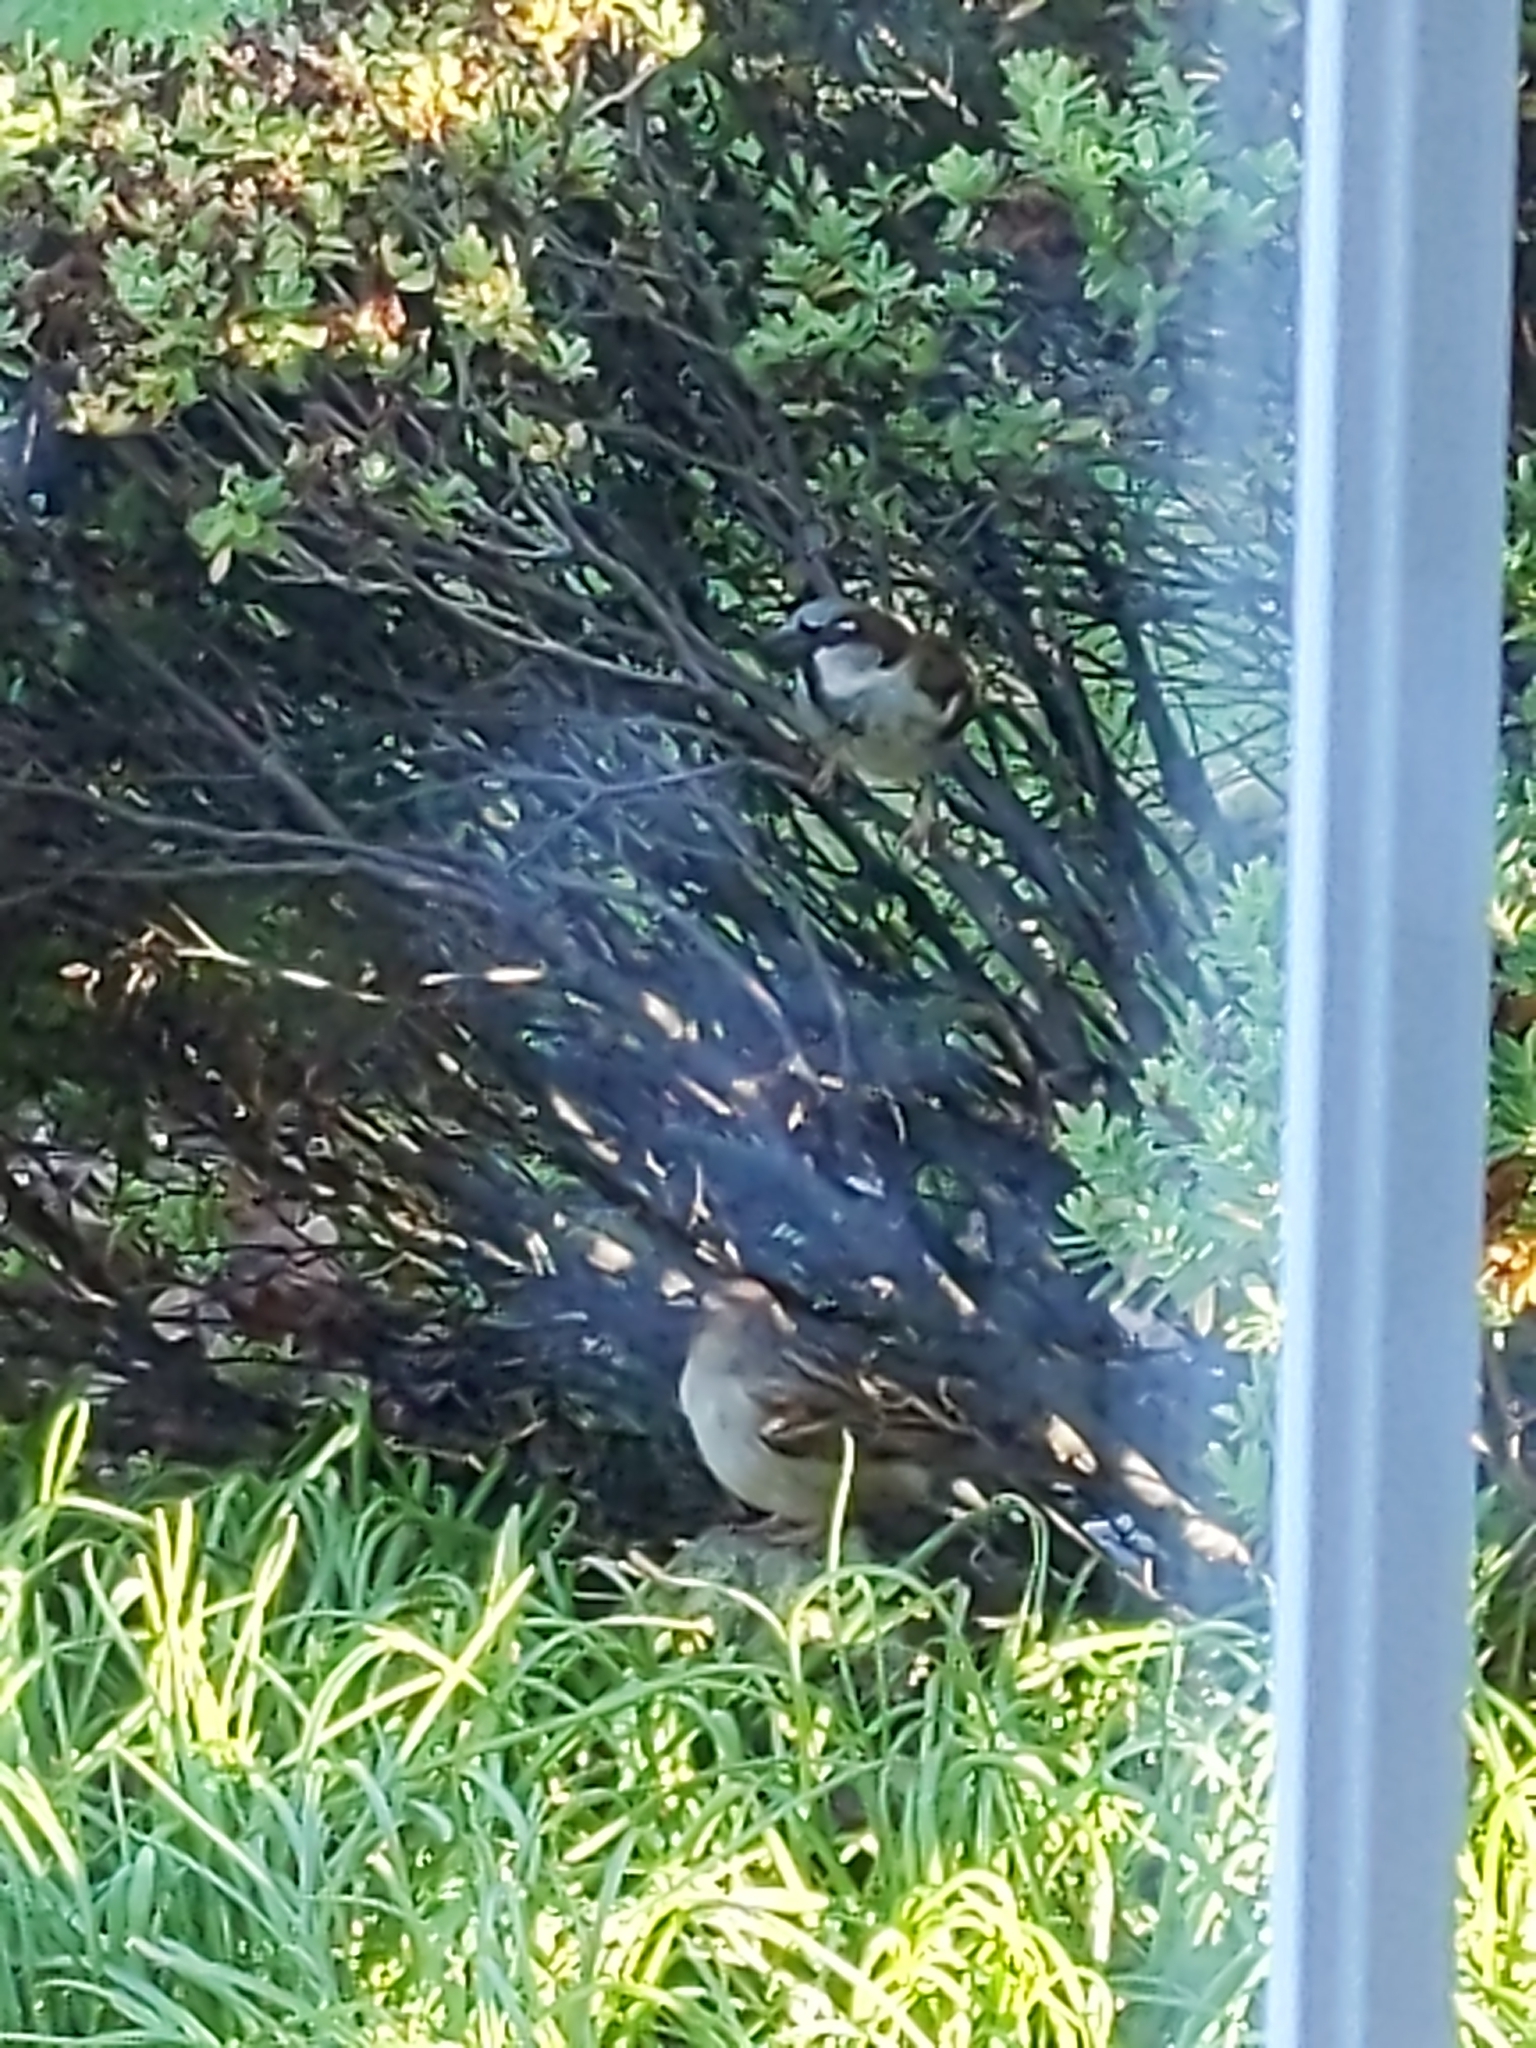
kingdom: Animalia
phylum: Chordata
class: Aves
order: Passeriformes
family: Passeridae
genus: Passer
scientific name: Passer domesticus
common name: House sparrow
